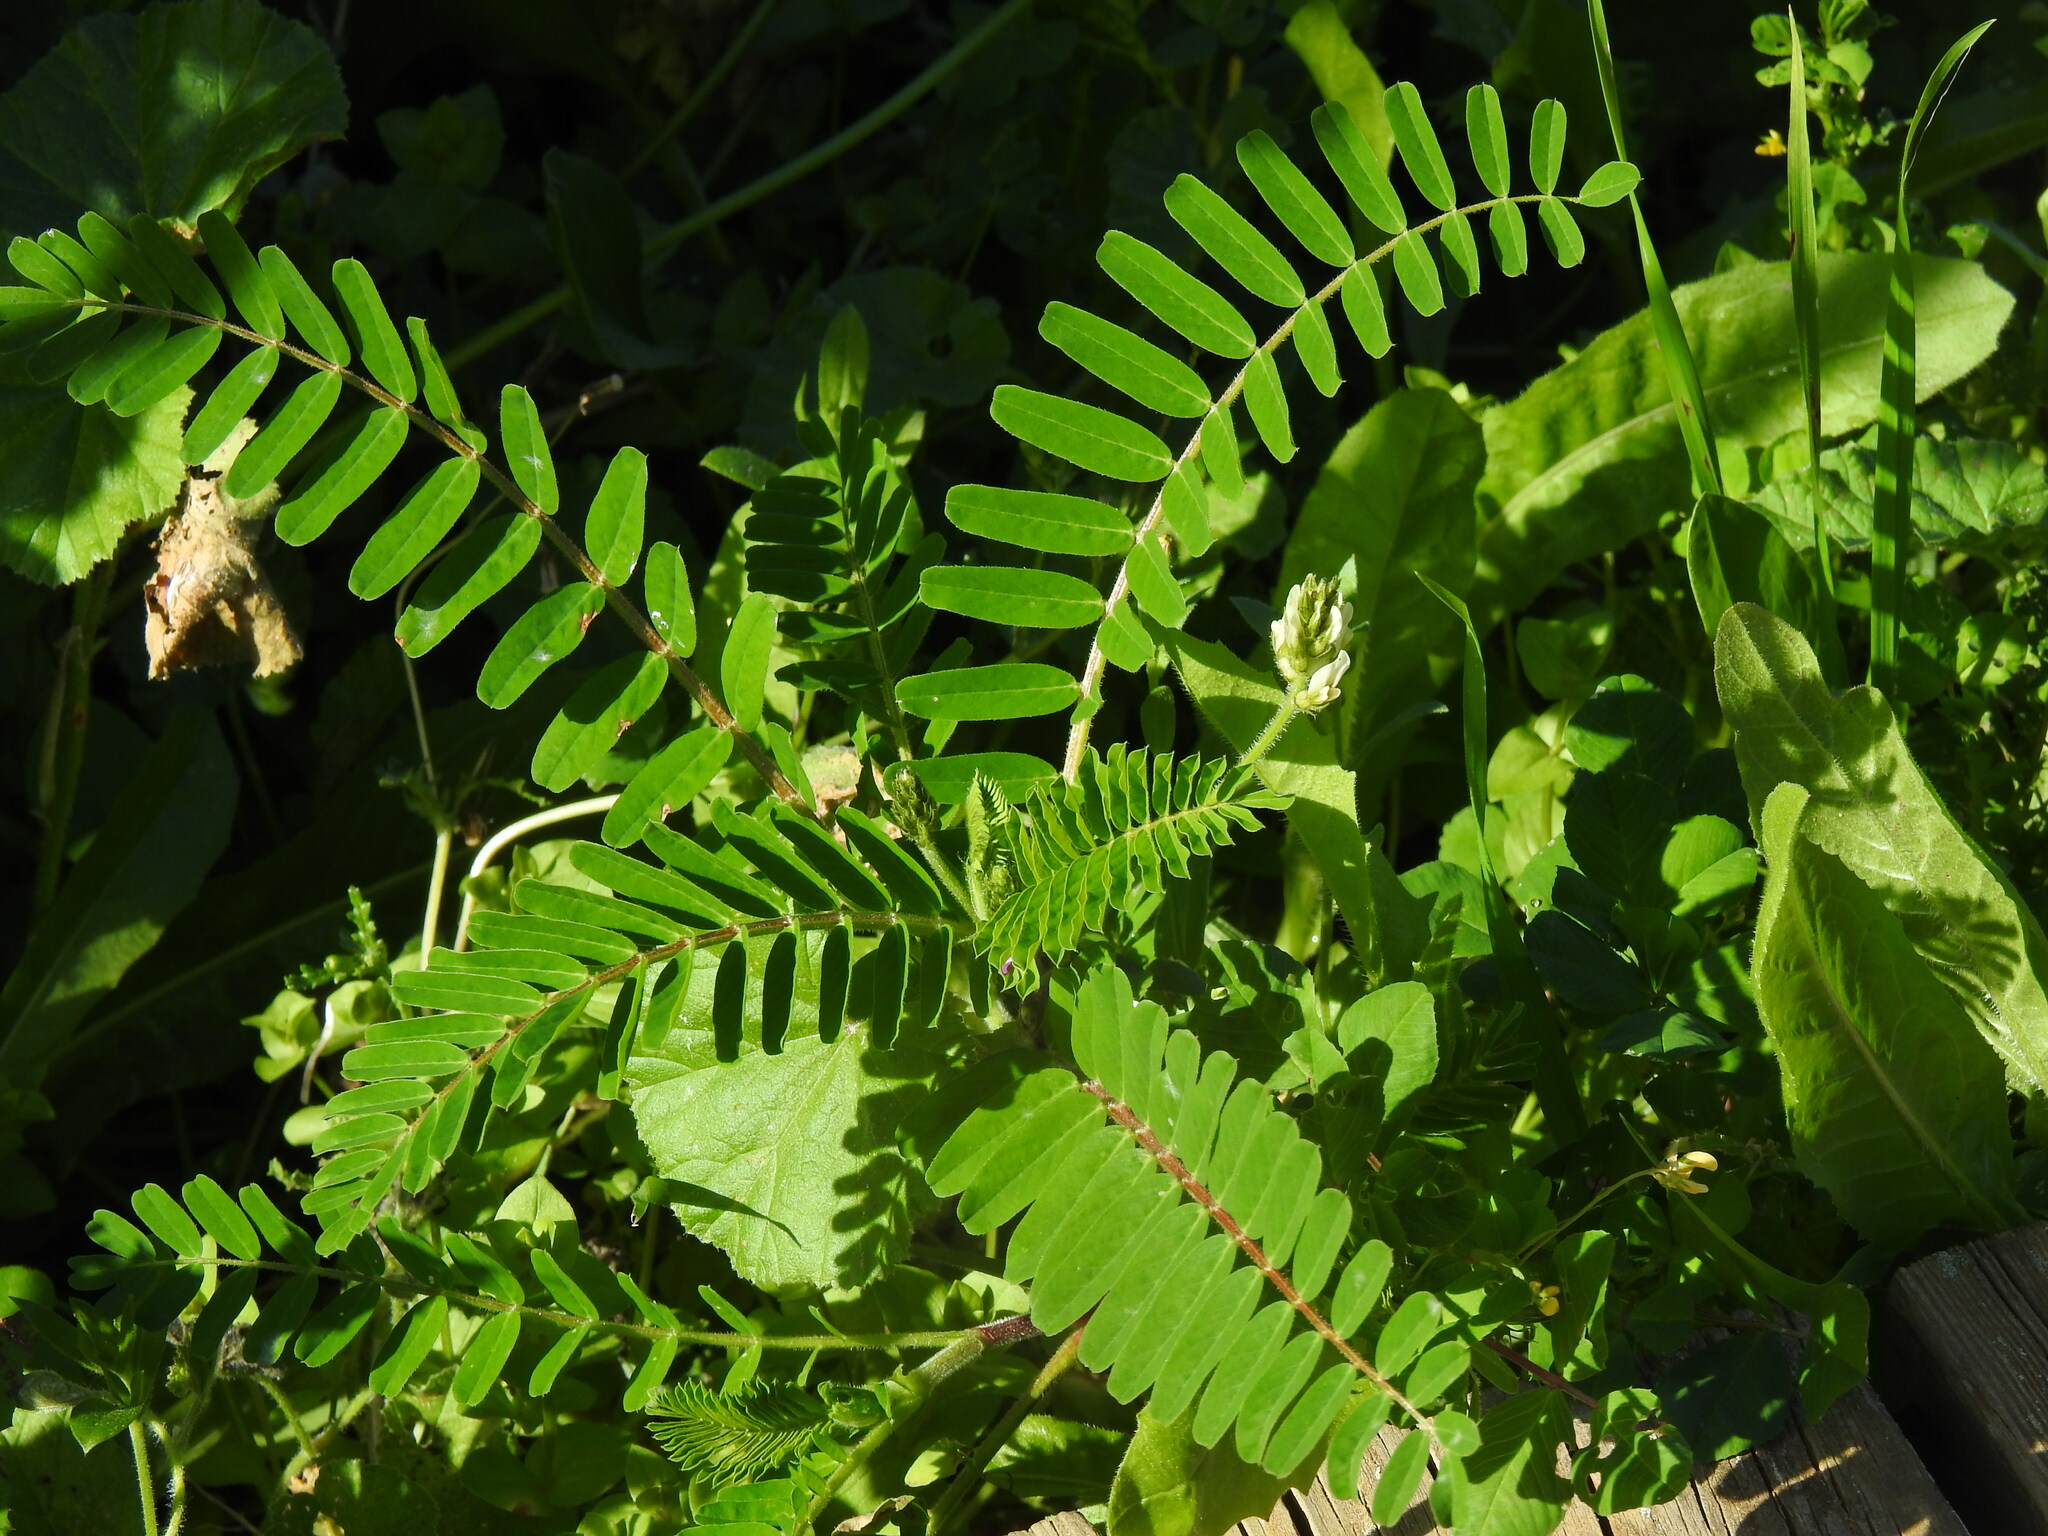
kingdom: Plantae
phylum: Tracheophyta
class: Magnoliopsida
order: Fabales
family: Fabaceae
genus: Astragalus
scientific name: Astragalus boeticus
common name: Milk-vetch
